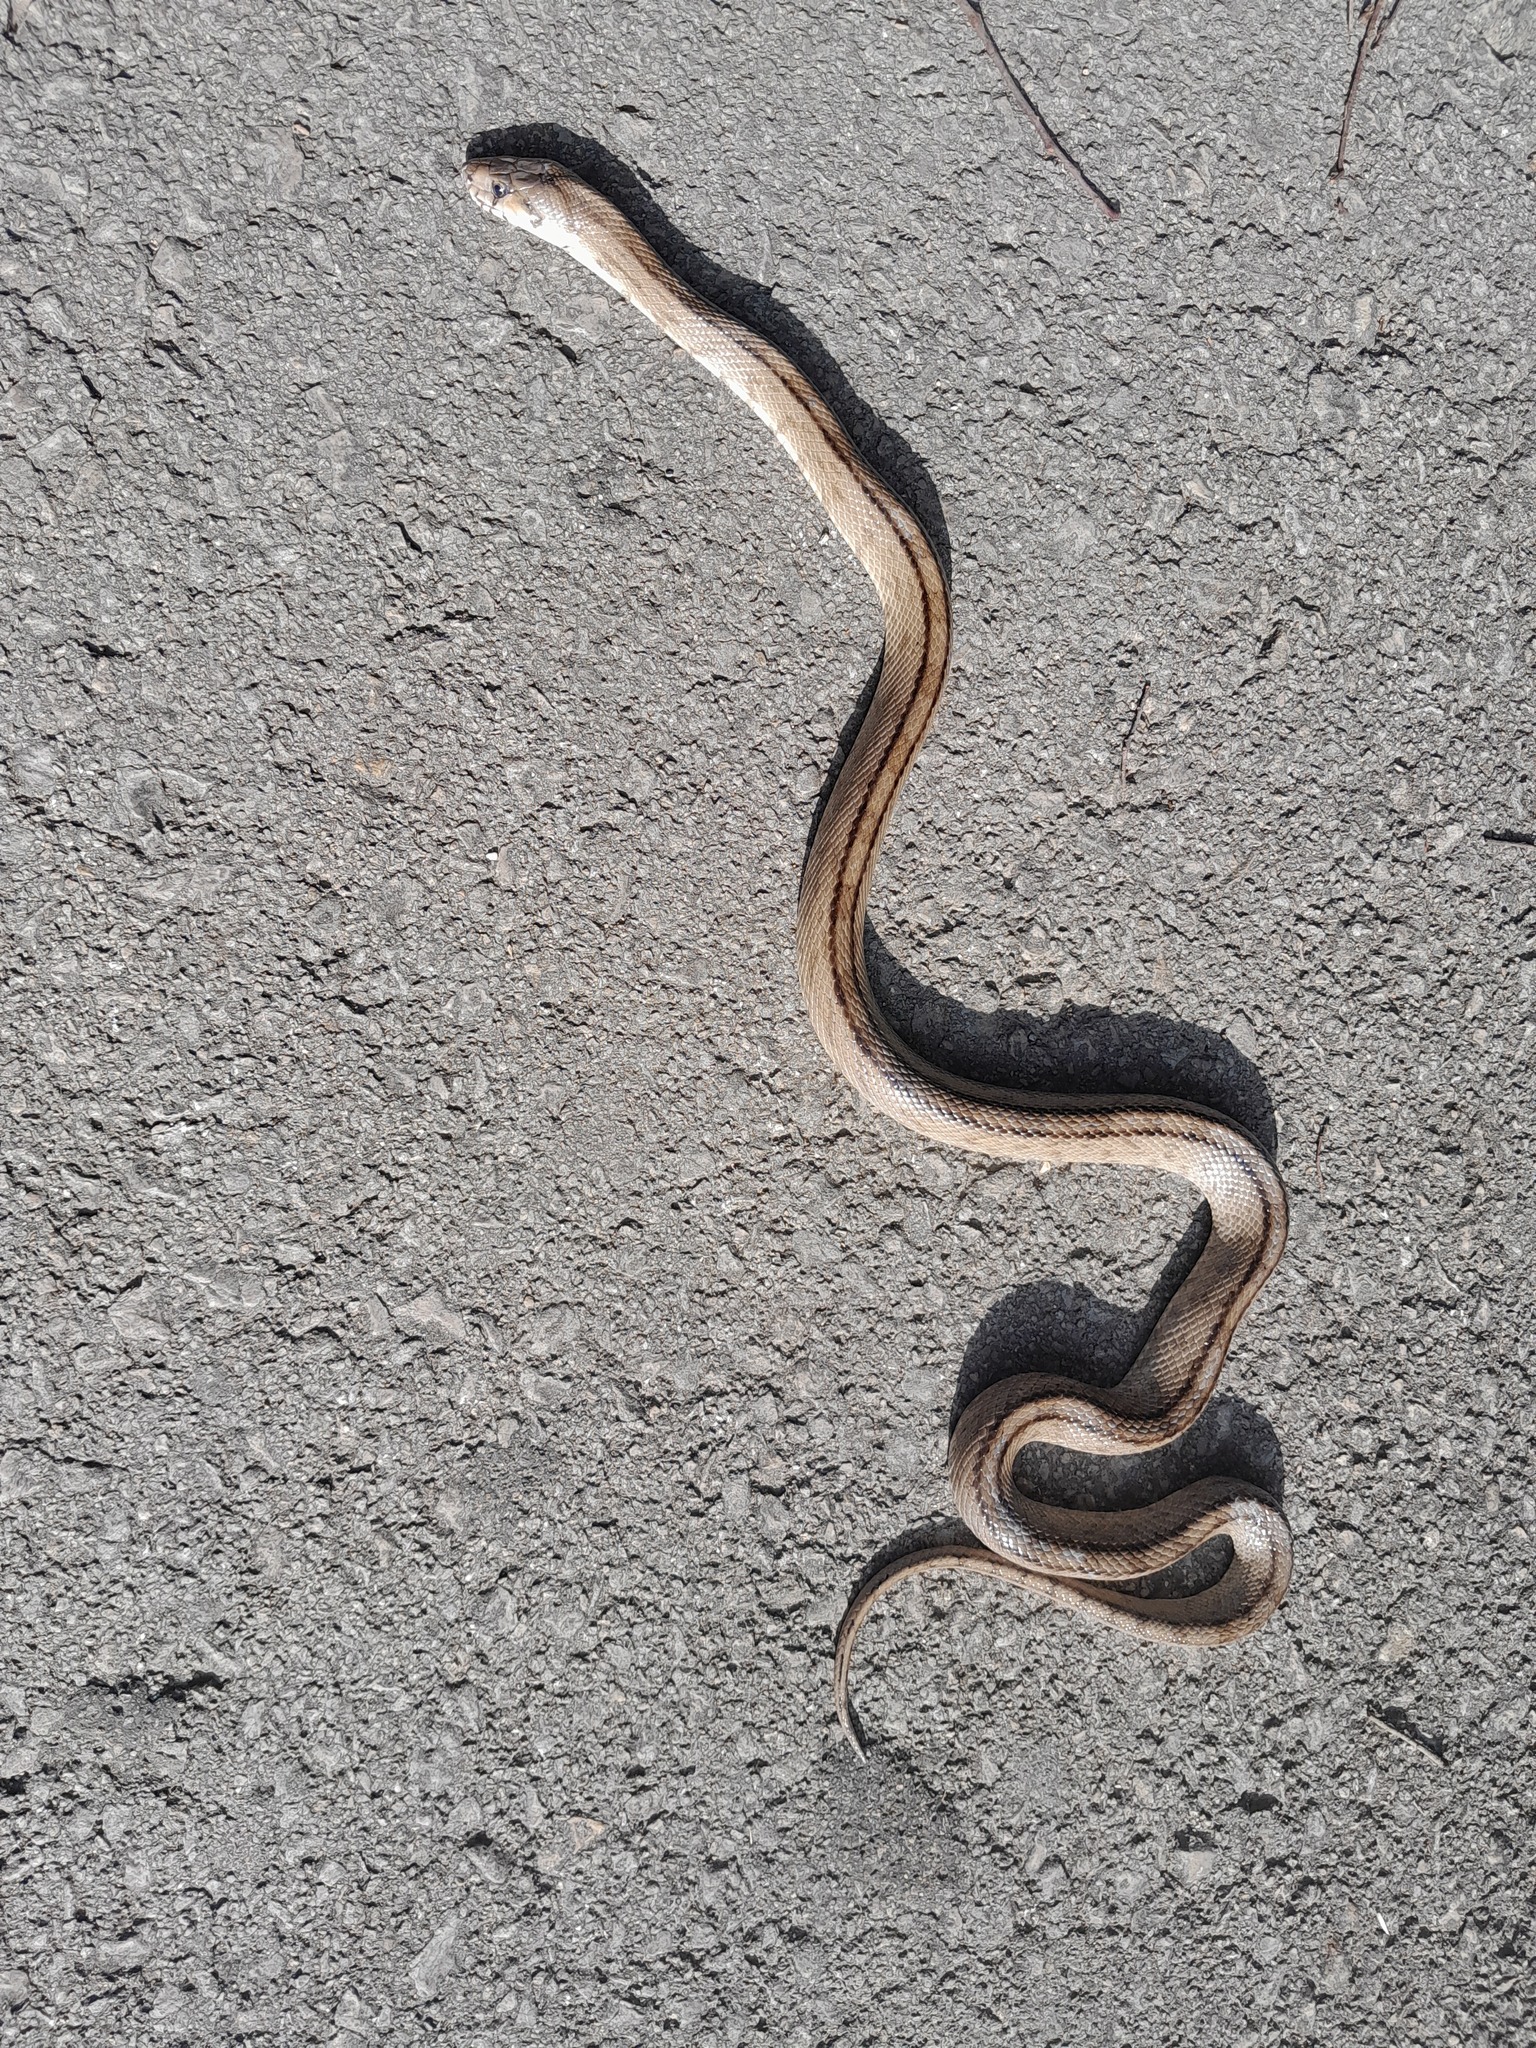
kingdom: Animalia
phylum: Chordata
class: Squamata
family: Colubridae
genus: Zamenis
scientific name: Zamenis scalaris
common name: Ladder snakes
